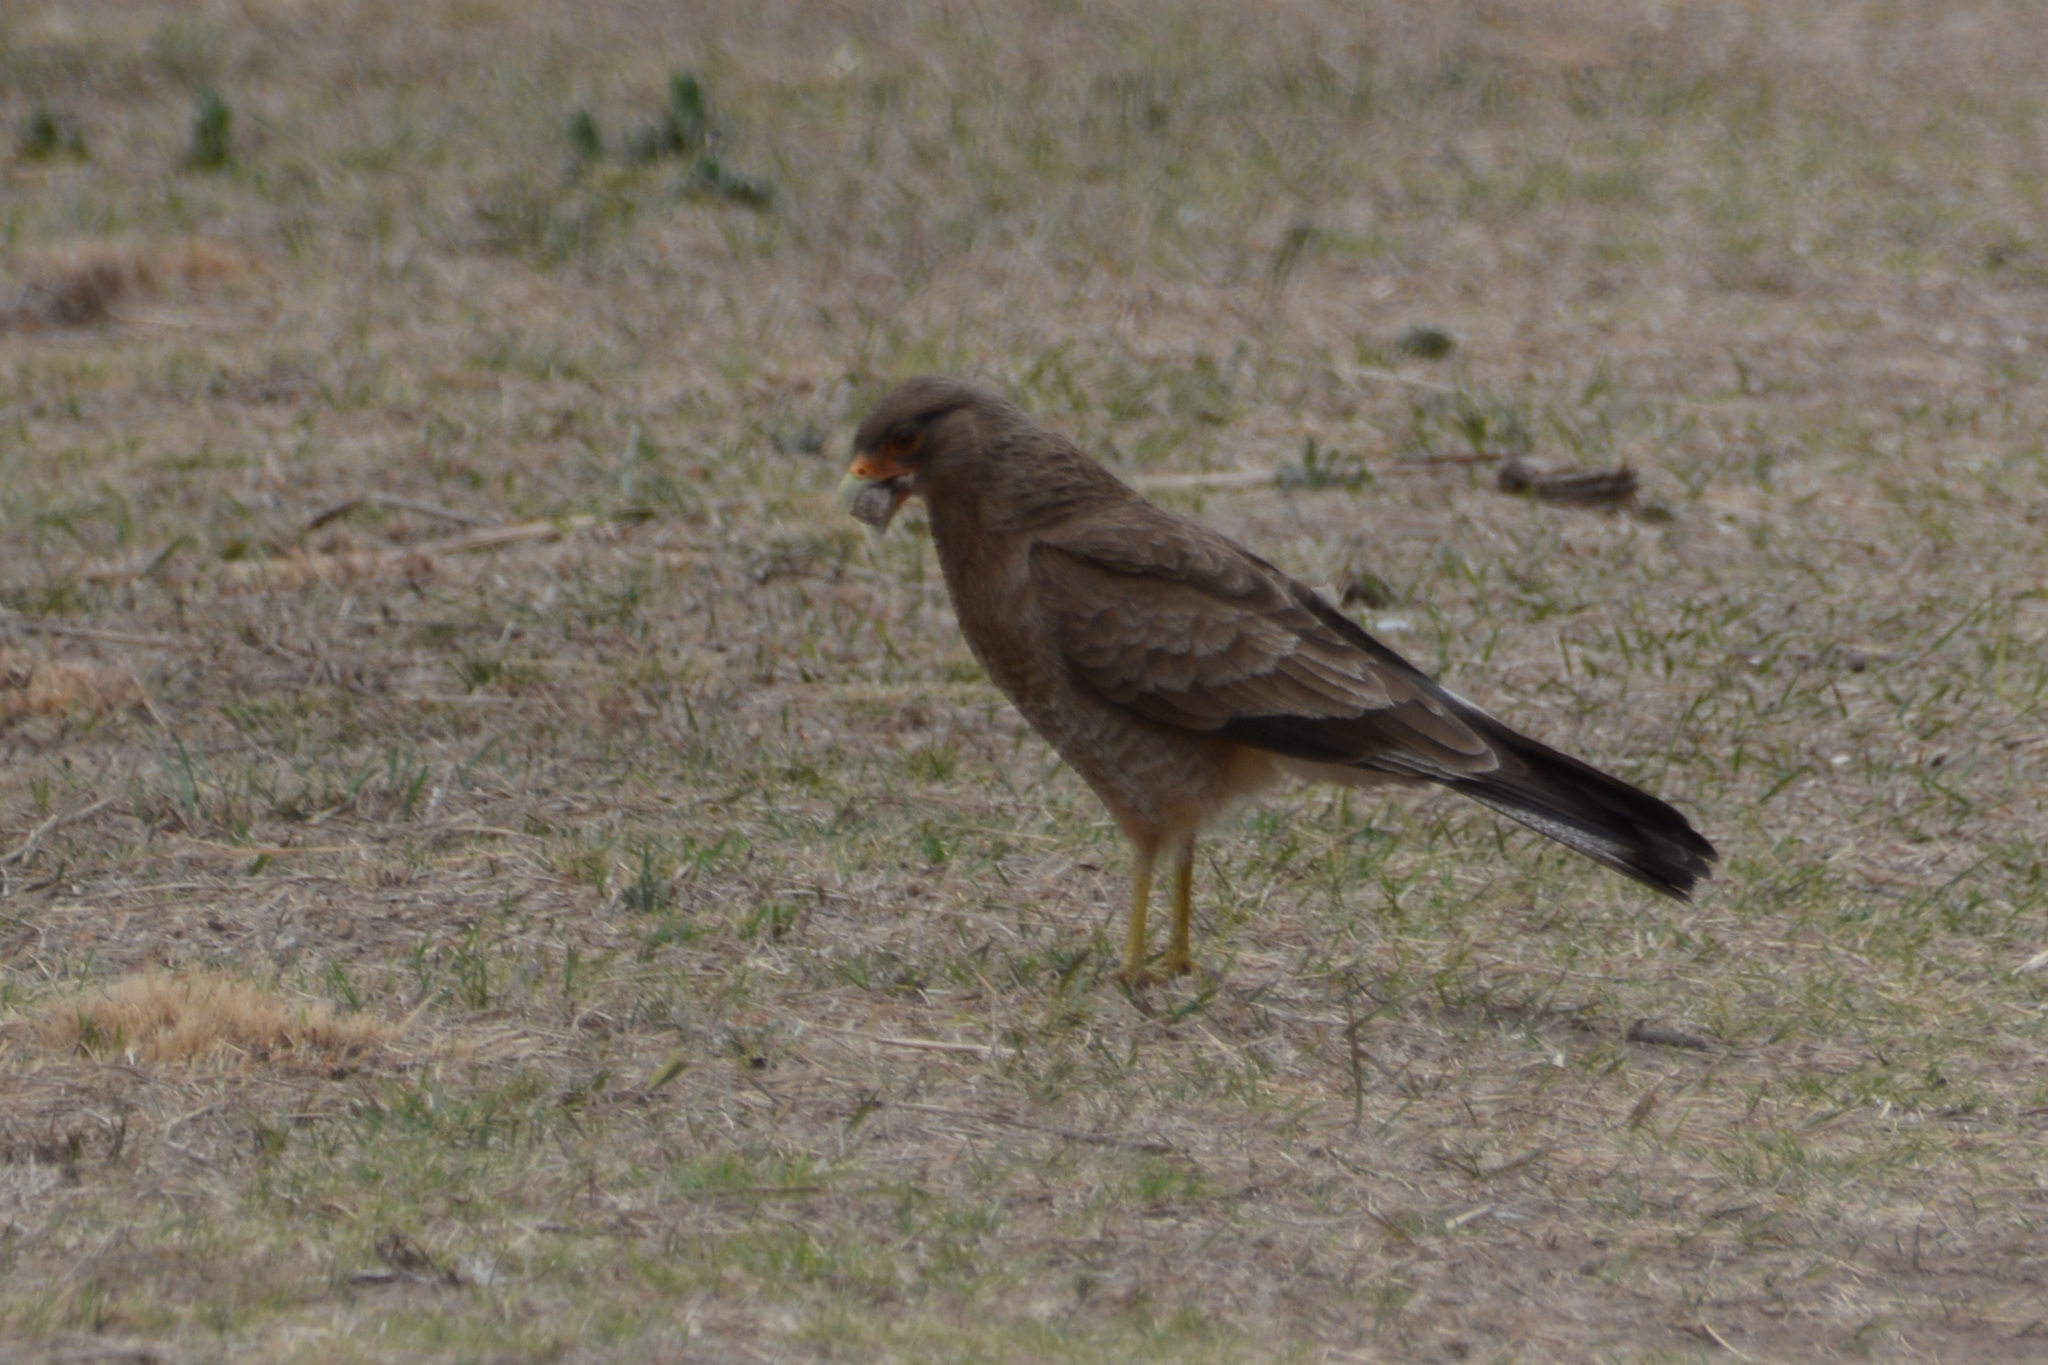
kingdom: Animalia
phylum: Chordata
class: Aves
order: Falconiformes
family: Falconidae
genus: Daptrius
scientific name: Daptrius
